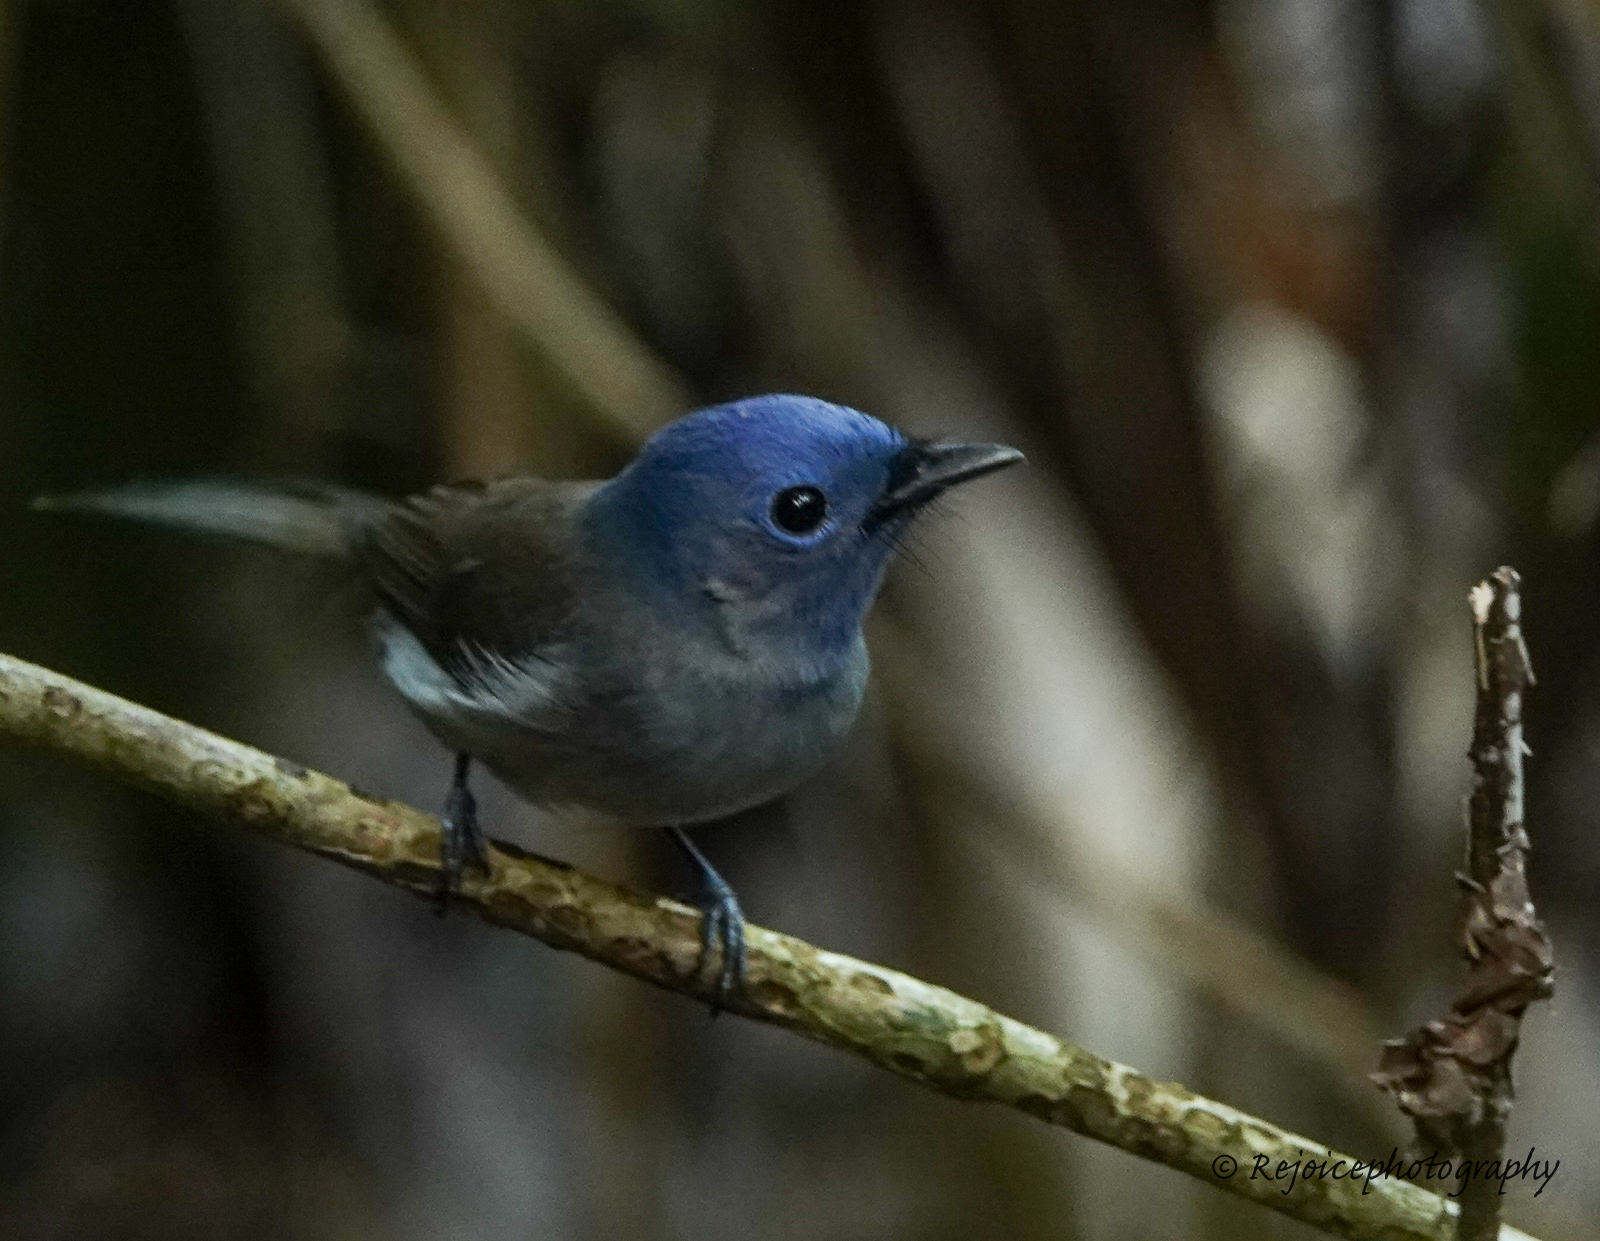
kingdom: Animalia
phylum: Chordata
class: Aves
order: Passeriformes
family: Monarchidae
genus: Hypothymis
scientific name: Hypothymis azurea
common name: Black-naped monarch
